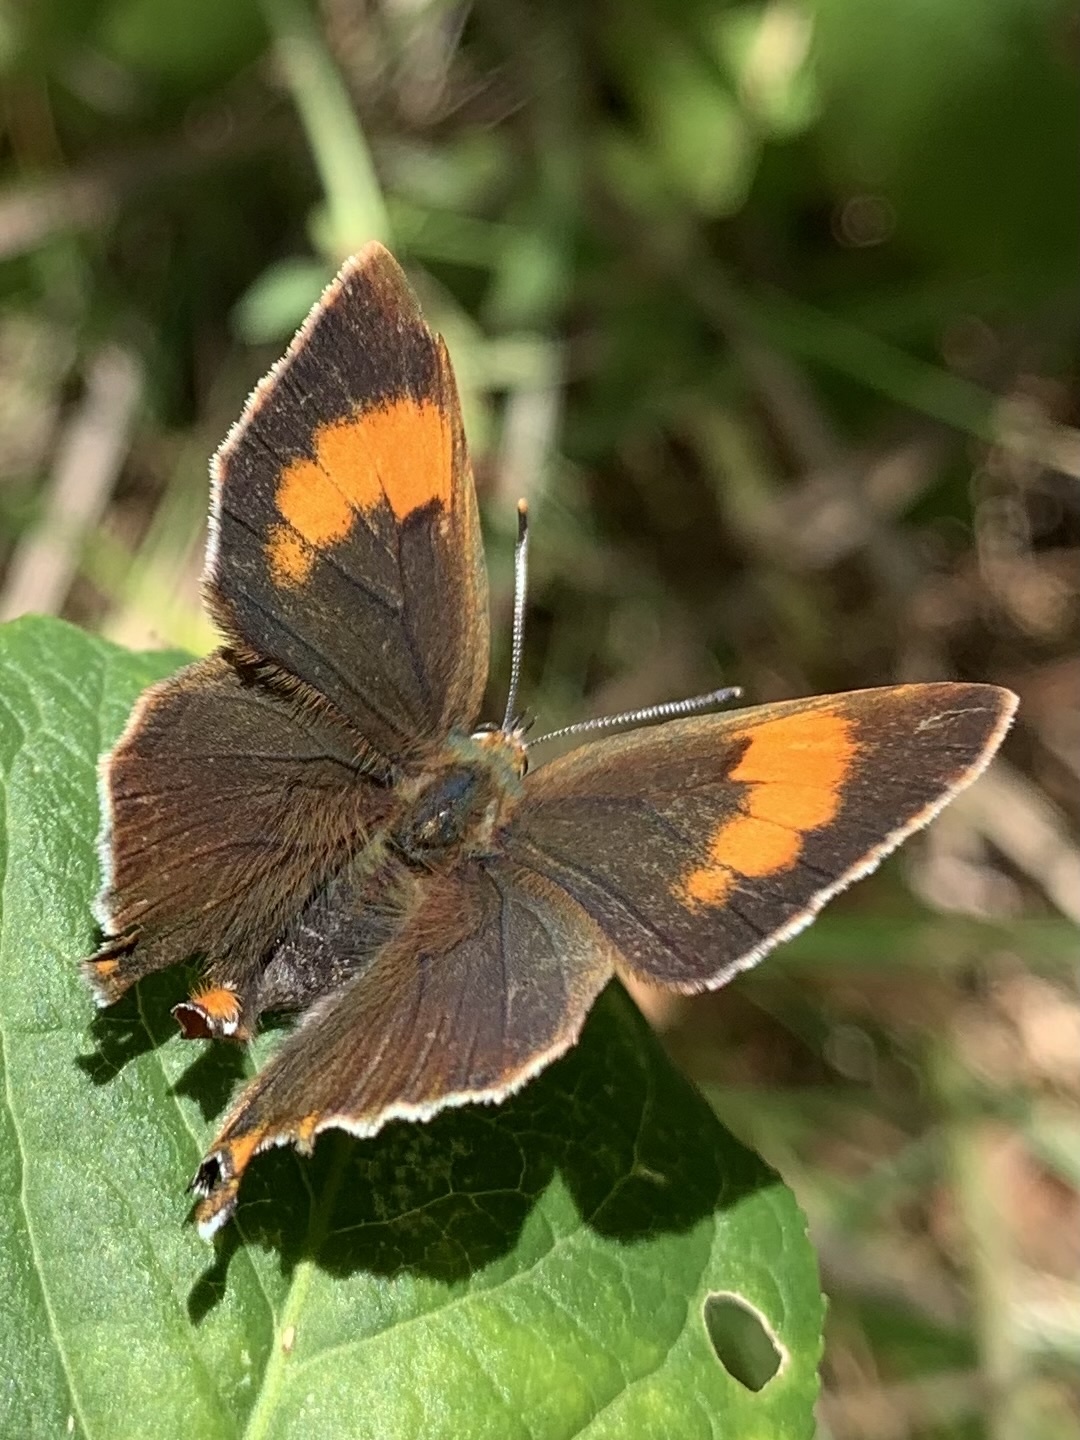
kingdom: Animalia
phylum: Arthropoda
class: Insecta
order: Lepidoptera
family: Lycaenidae
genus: Thecla
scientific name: Thecla betulae
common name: Brown hairstreak
